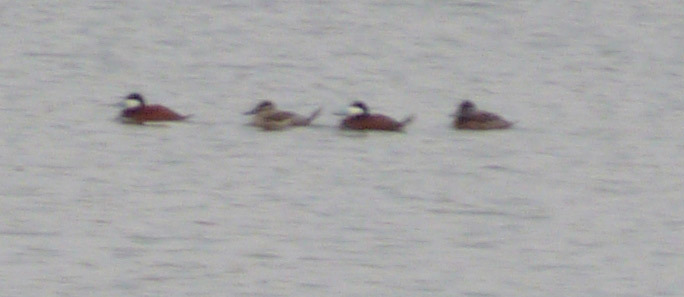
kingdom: Animalia
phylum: Chordata
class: Aves
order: Anseriformes
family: Anatidae
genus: Oxyura
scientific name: Oxyura jamaicensis
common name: Ruddy duck
